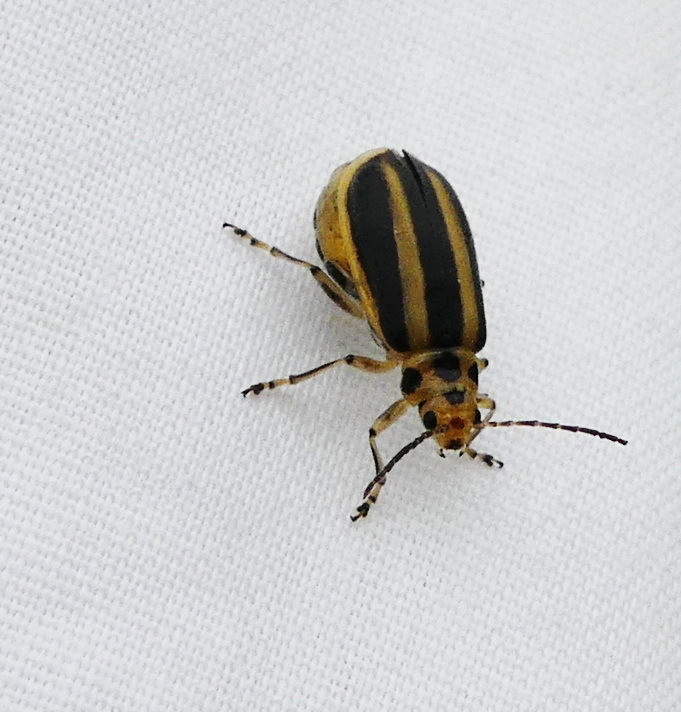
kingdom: Animalia
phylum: Arthropoda
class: Insecta
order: Coleoptera
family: Chrysomelidae
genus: Trirhabda
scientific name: Trirhabda canadensis
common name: Goldenrod leaf beetle
